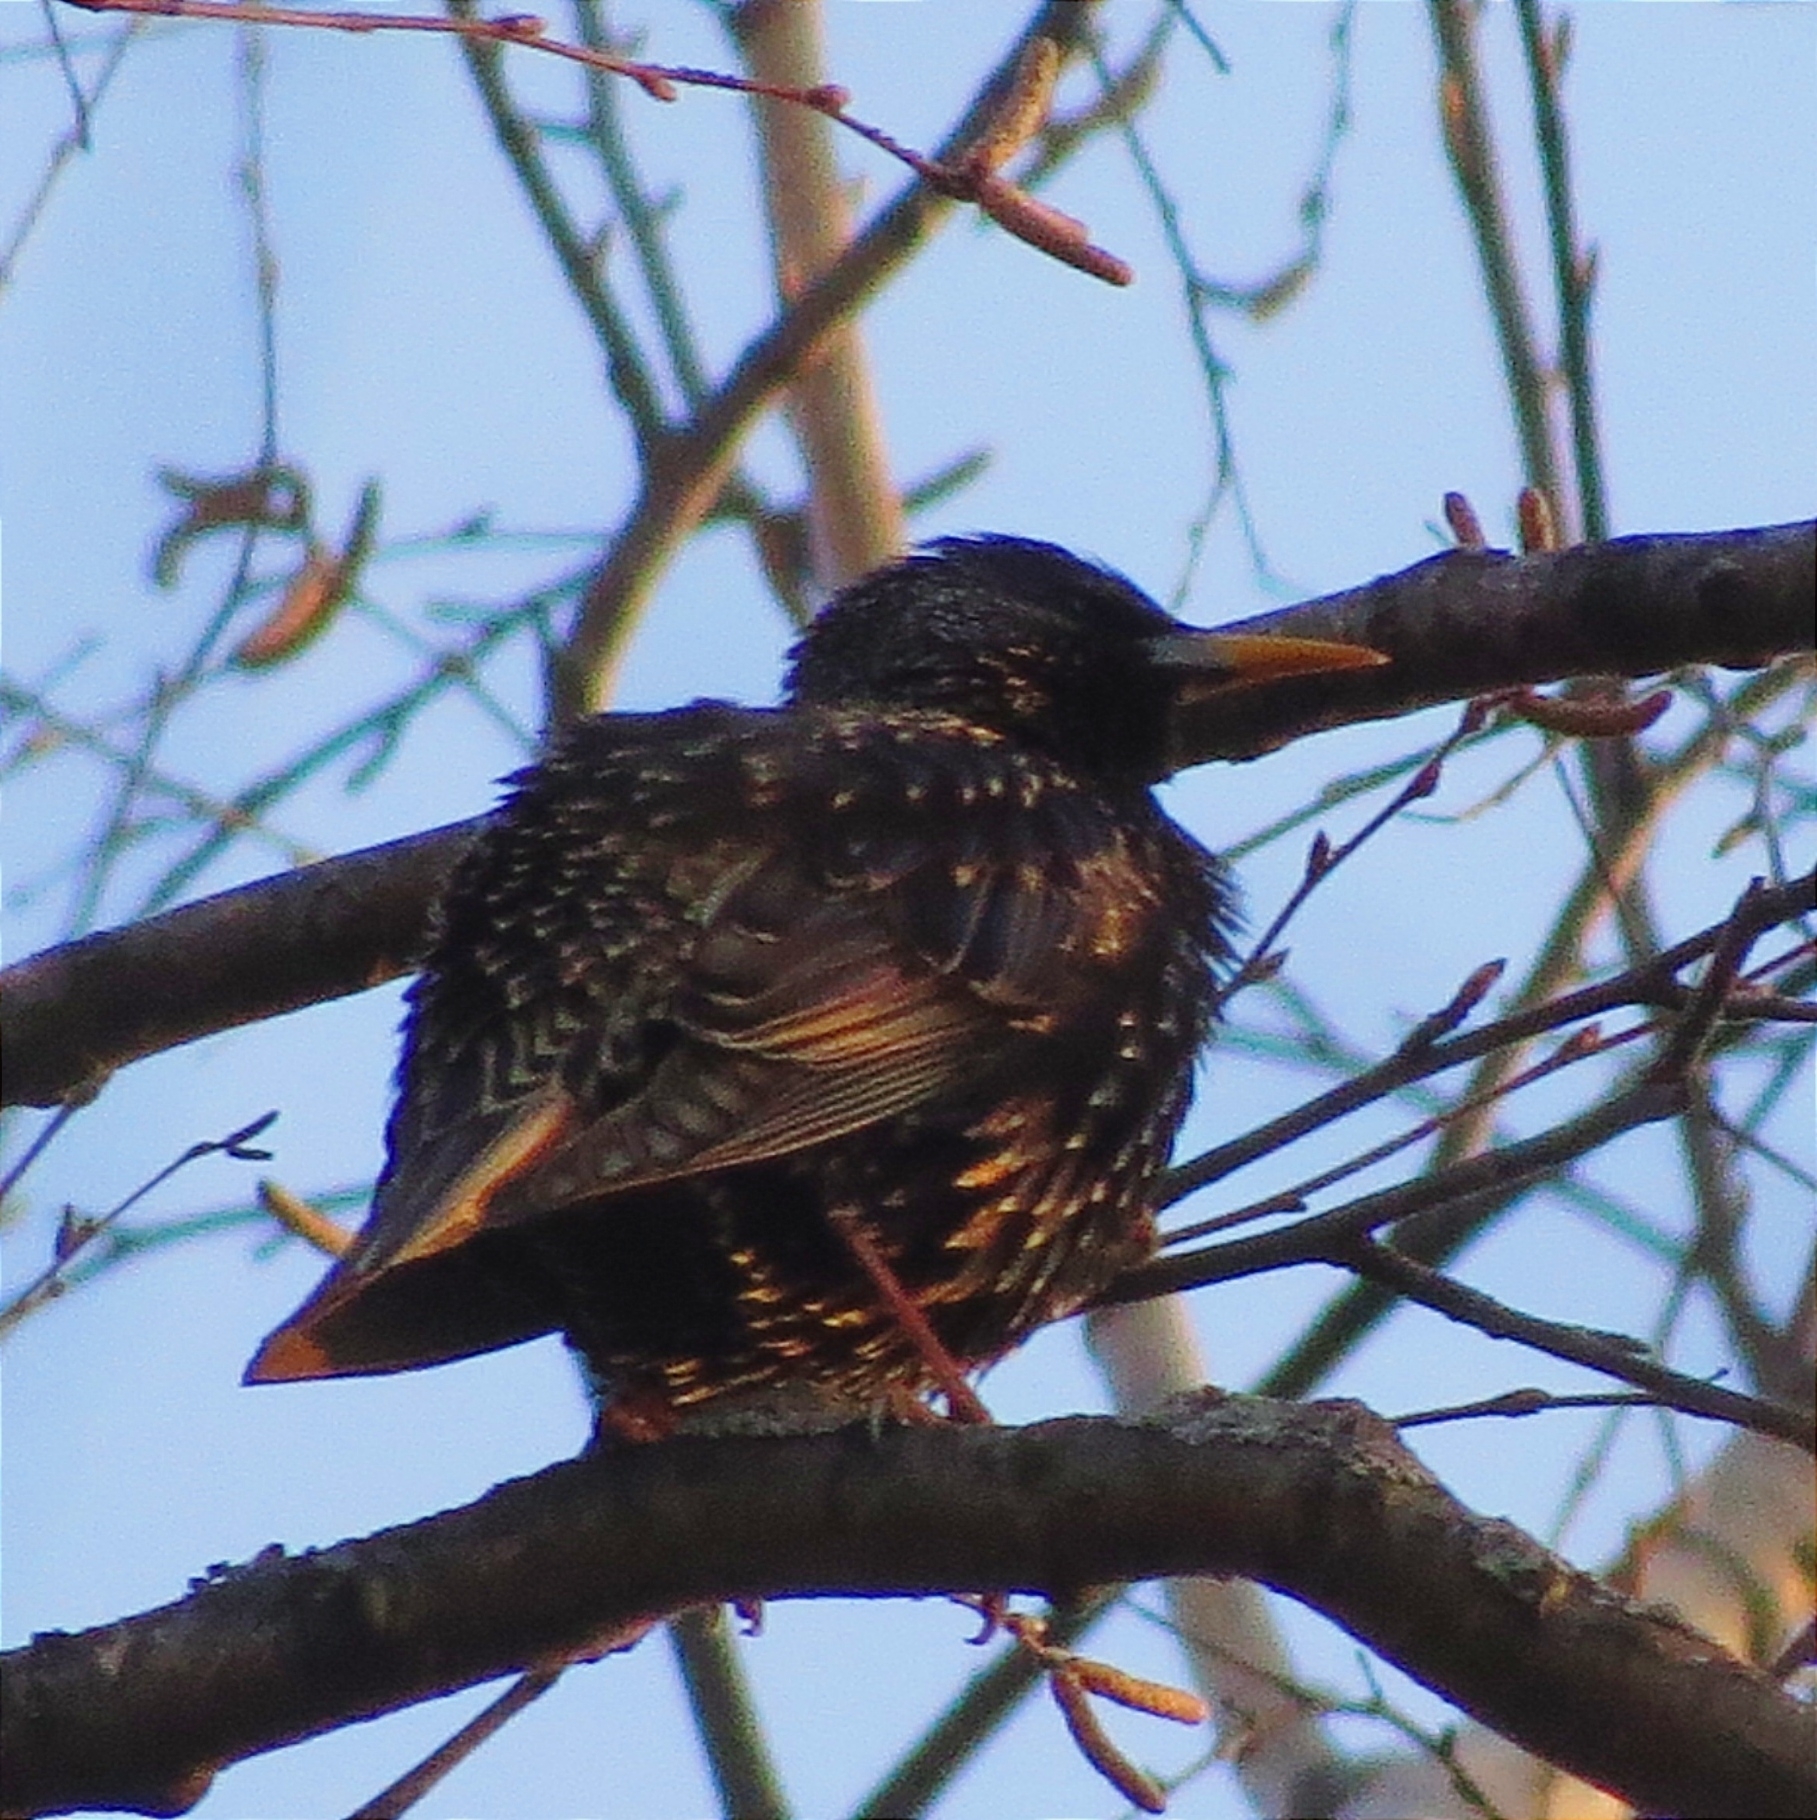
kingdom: Animalia
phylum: Chordata
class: Aves
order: Passeriformes
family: Sturnidae
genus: Sturnus
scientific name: Sturnus vulgaris
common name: Common starling
